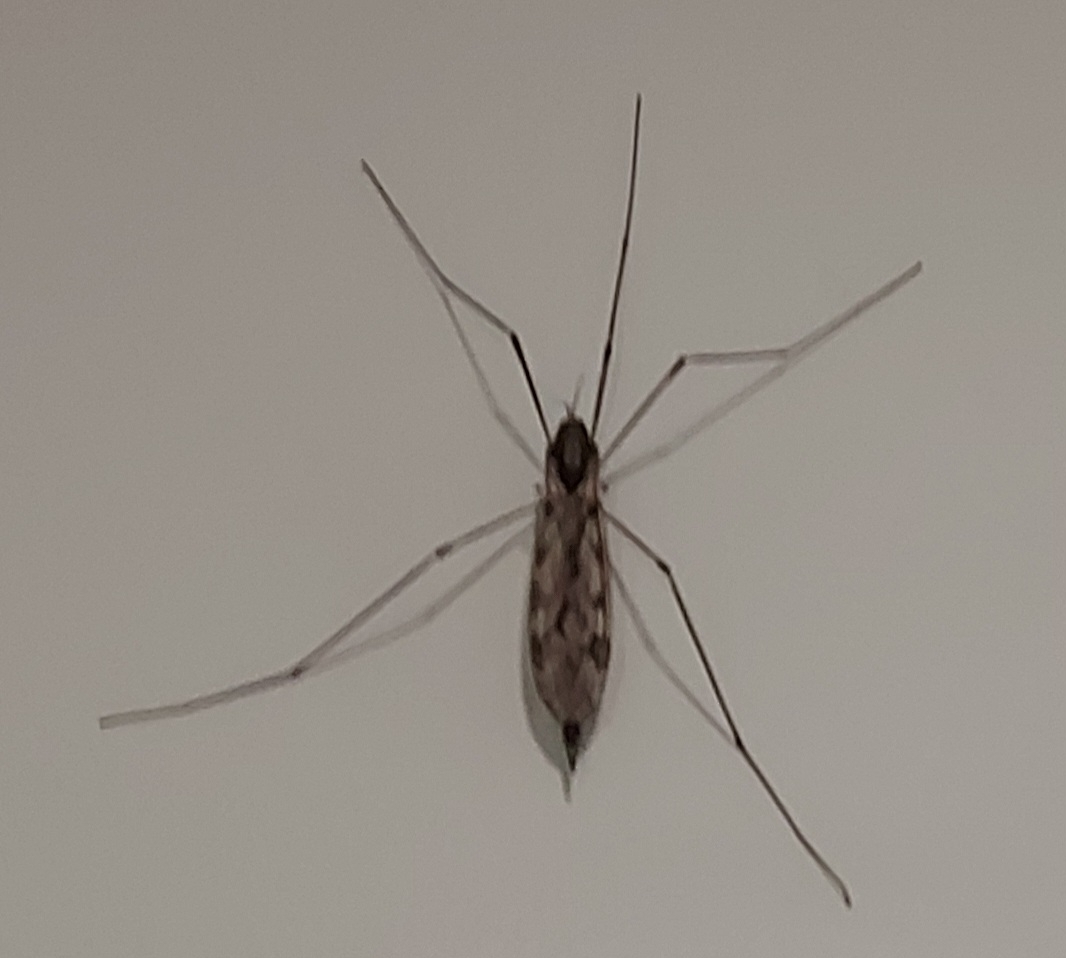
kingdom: Animalia
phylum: Arthropoda
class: Insecta
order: Diptera
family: Tipulidae
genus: Tipula
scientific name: Tipula abdominalis
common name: Giant crane fly
